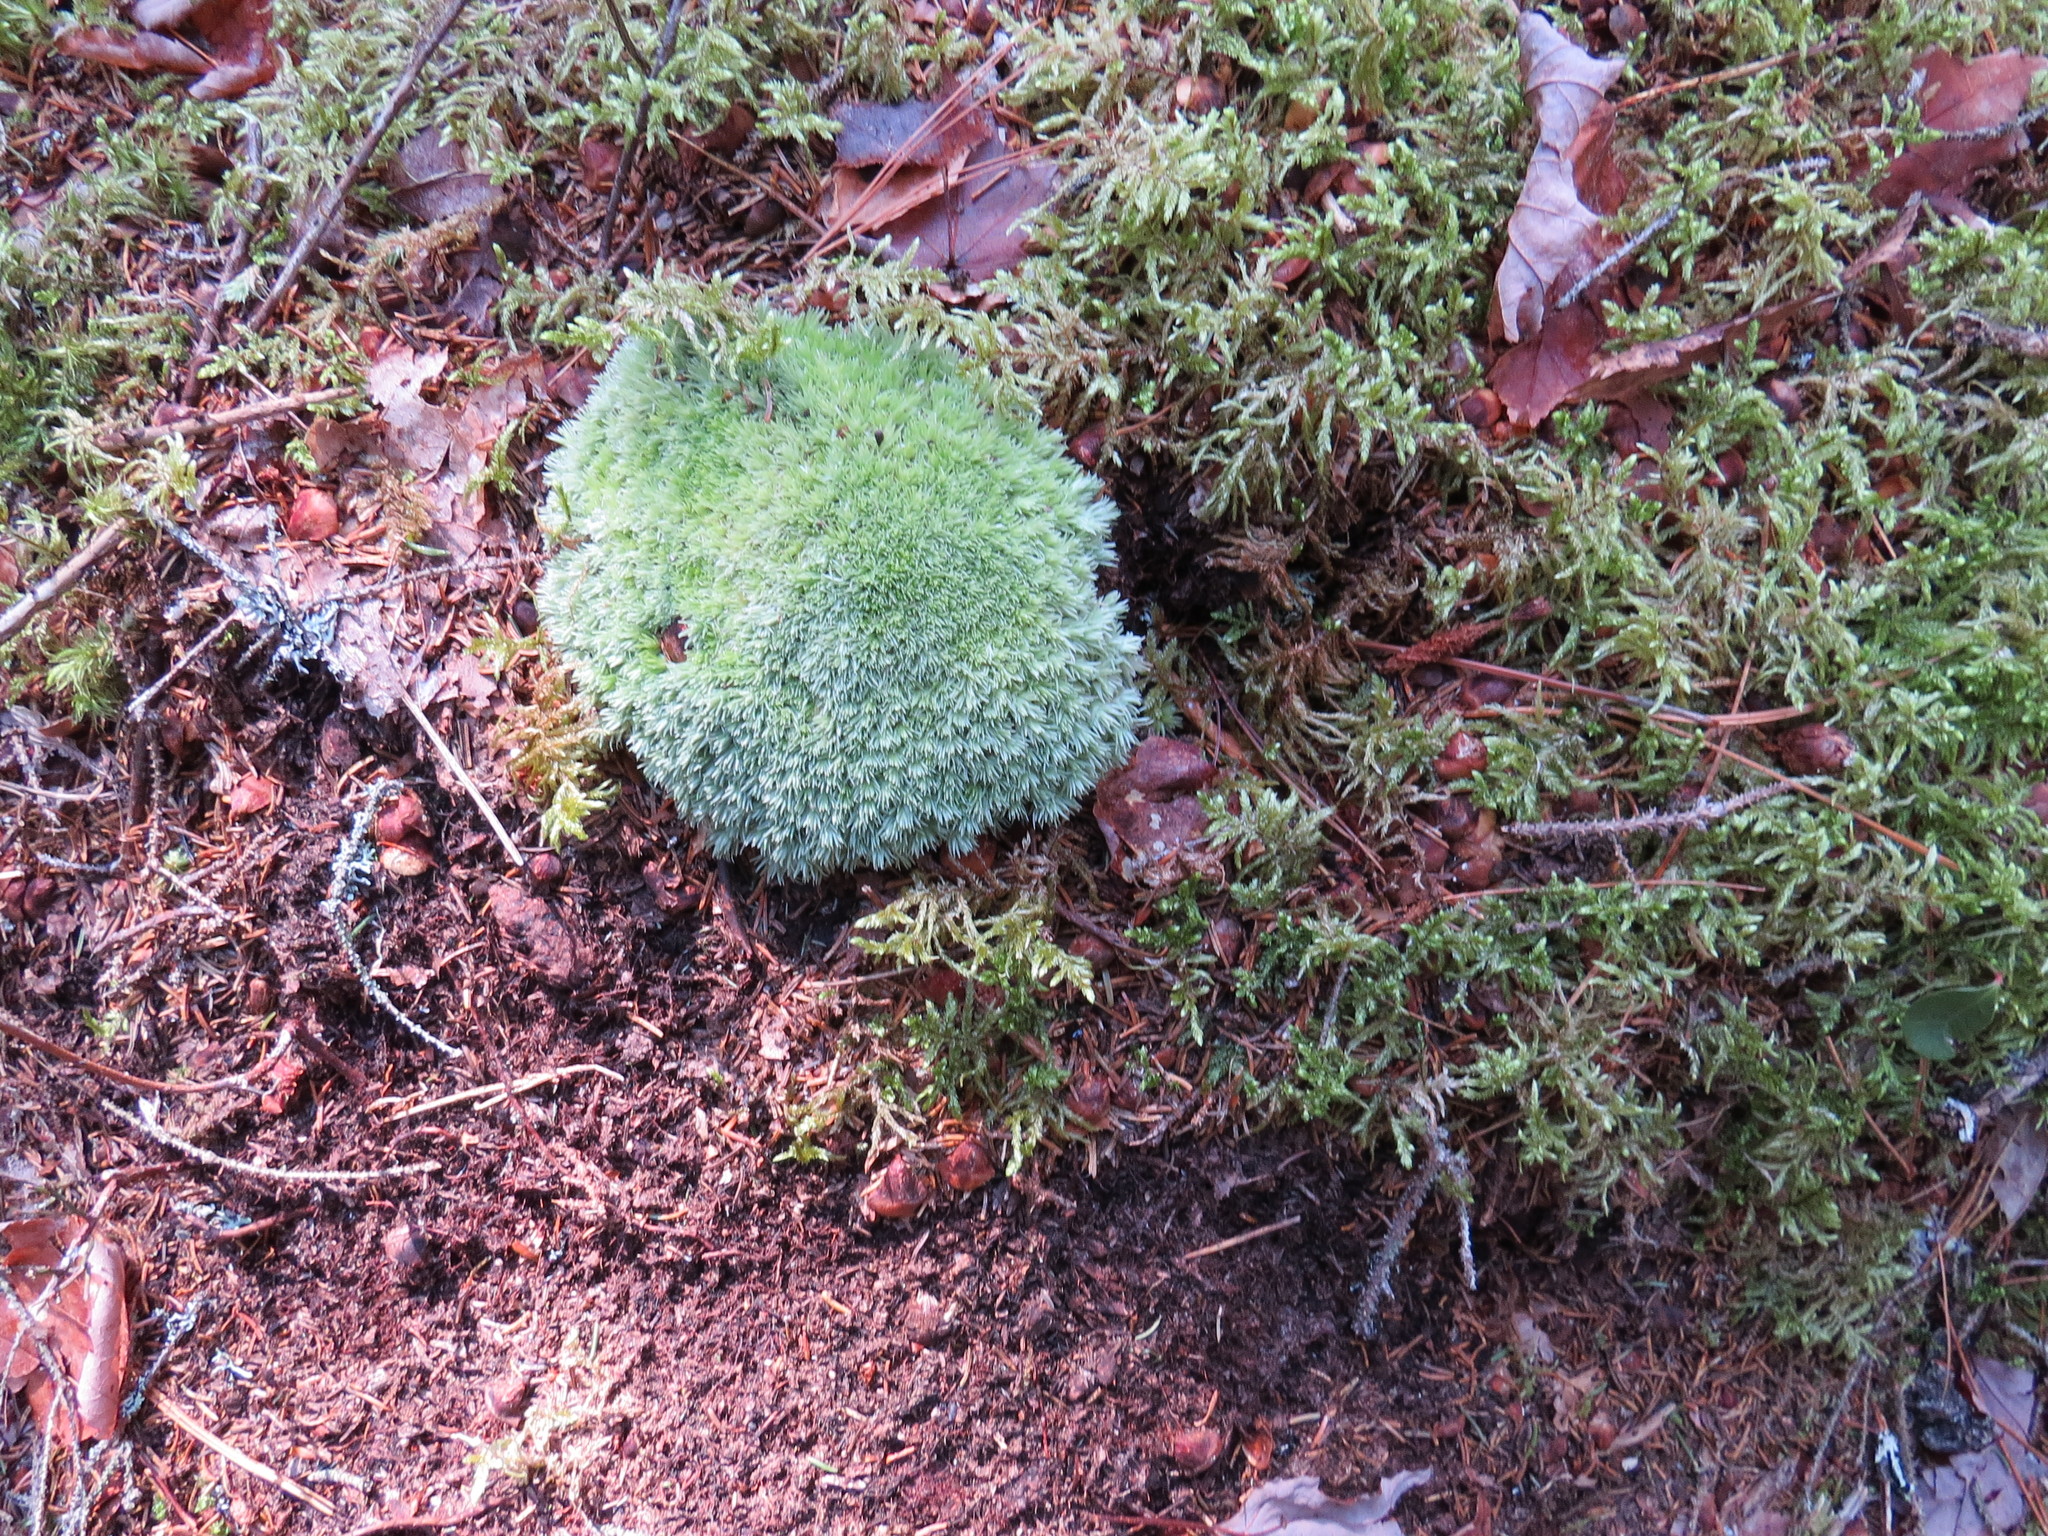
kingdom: Plantae
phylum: Bryophyta
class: Bryopsida
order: Dicranales
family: Leucobryaceae
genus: Leucobryum
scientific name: Leucobryum glaucum
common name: Large white-moss
